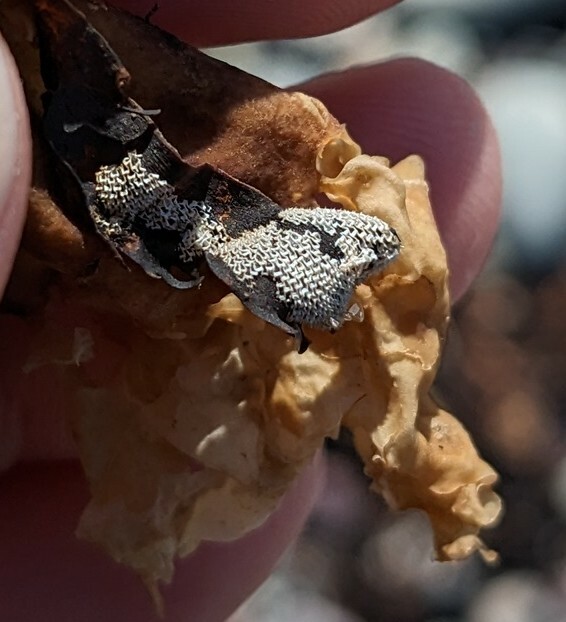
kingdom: Animalia
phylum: Bryozoa
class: Gymnolaemata
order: Cheilostomatida
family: Membraniporidae
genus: Membranipora
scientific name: Membranipora membranacea
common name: Sea mat
